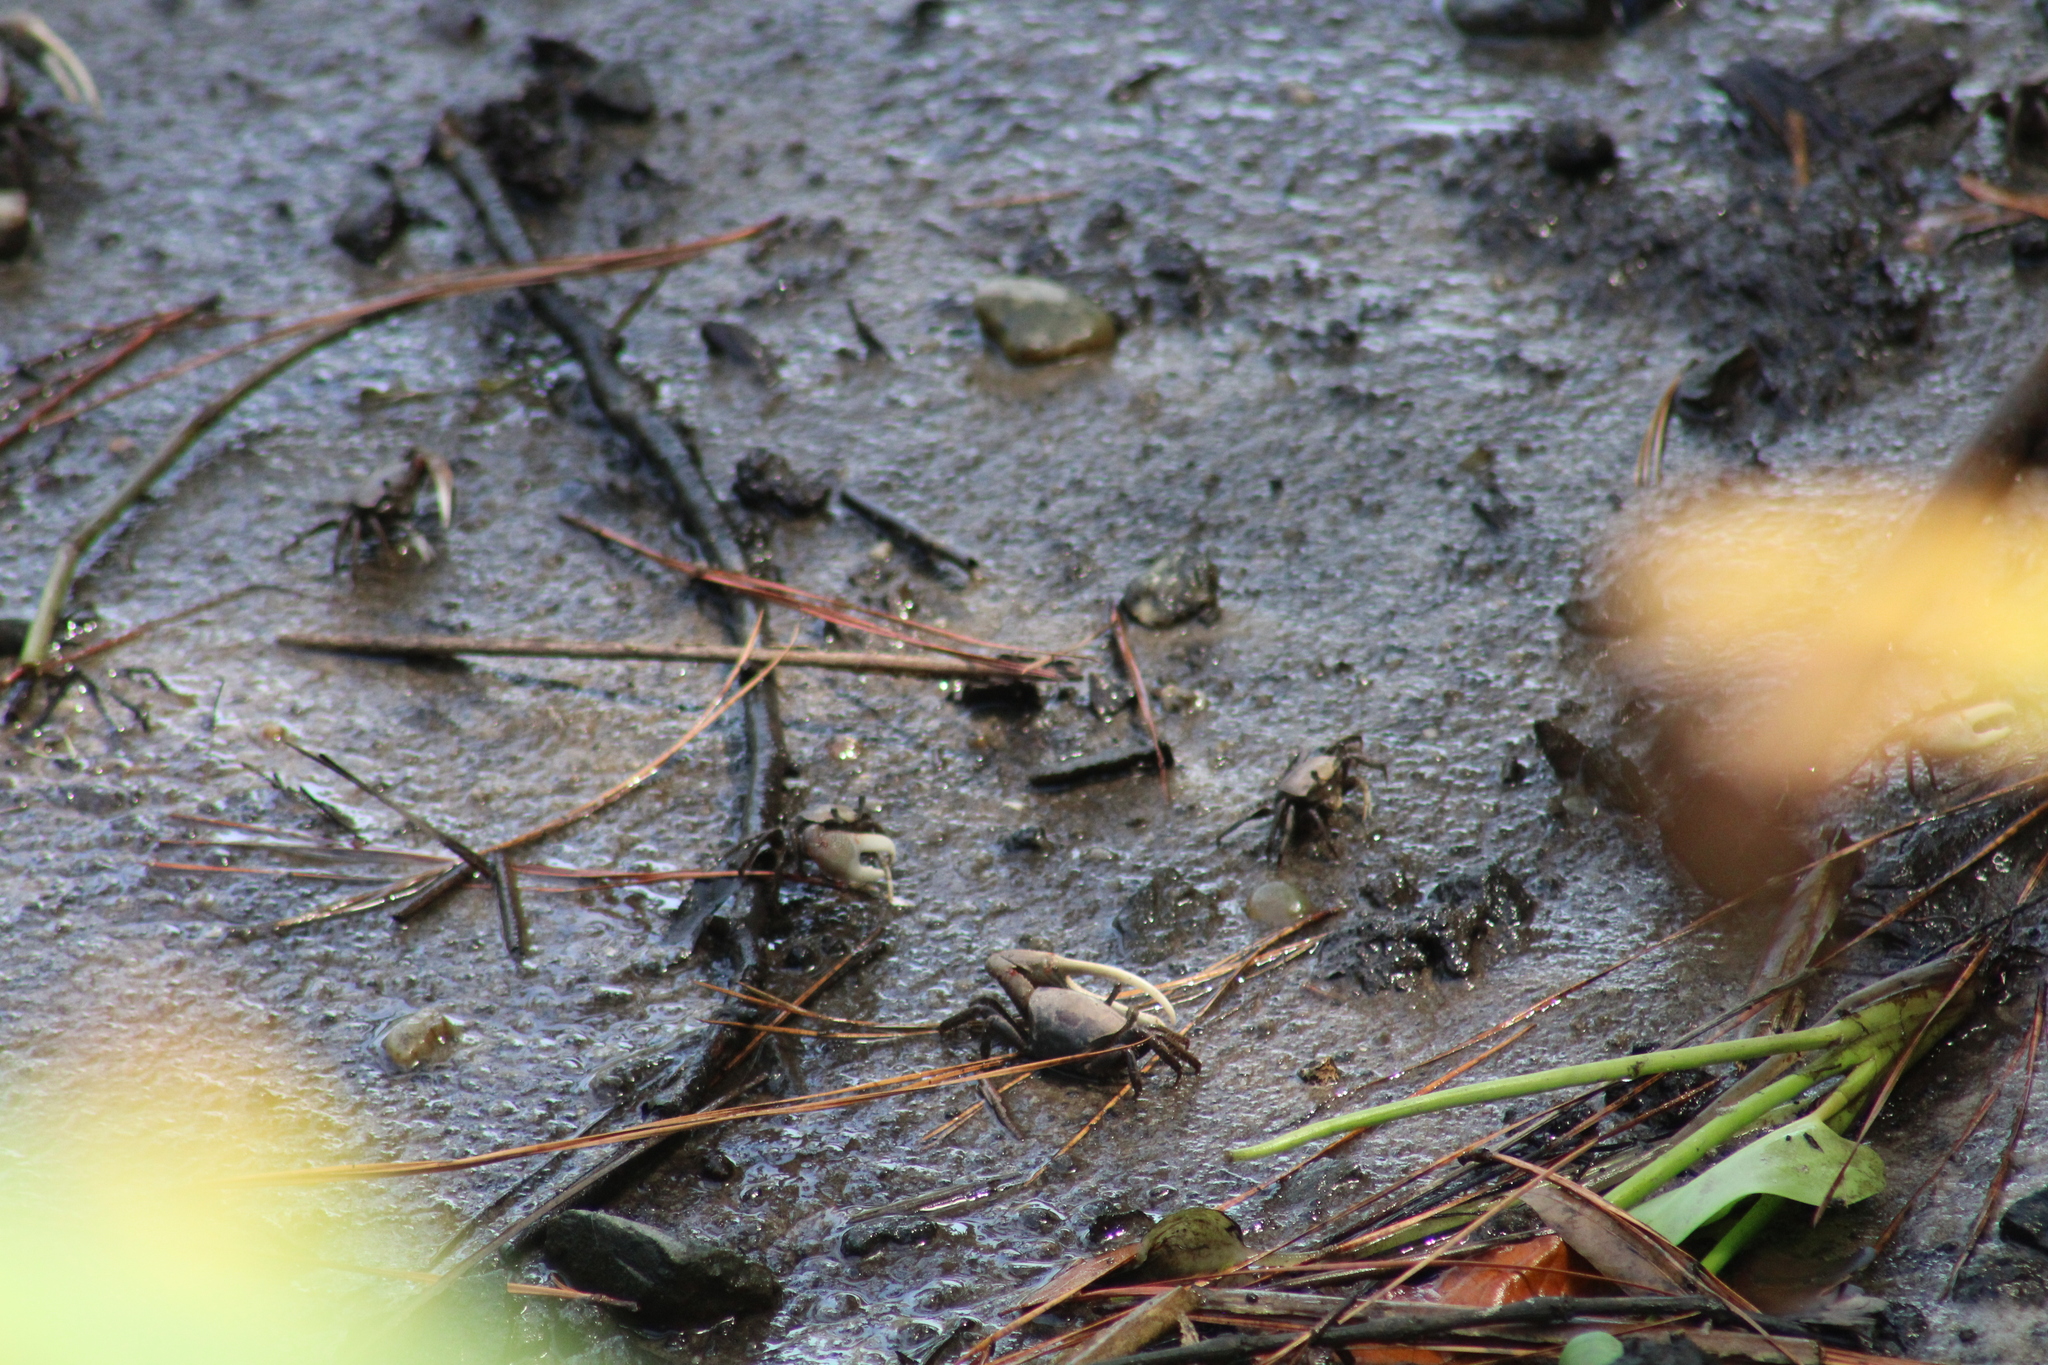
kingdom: Animalia
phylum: Arthropoda
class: Malacostraca
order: Decapoda
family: Ocypodidae
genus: Minuca
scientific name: Minuca minax
